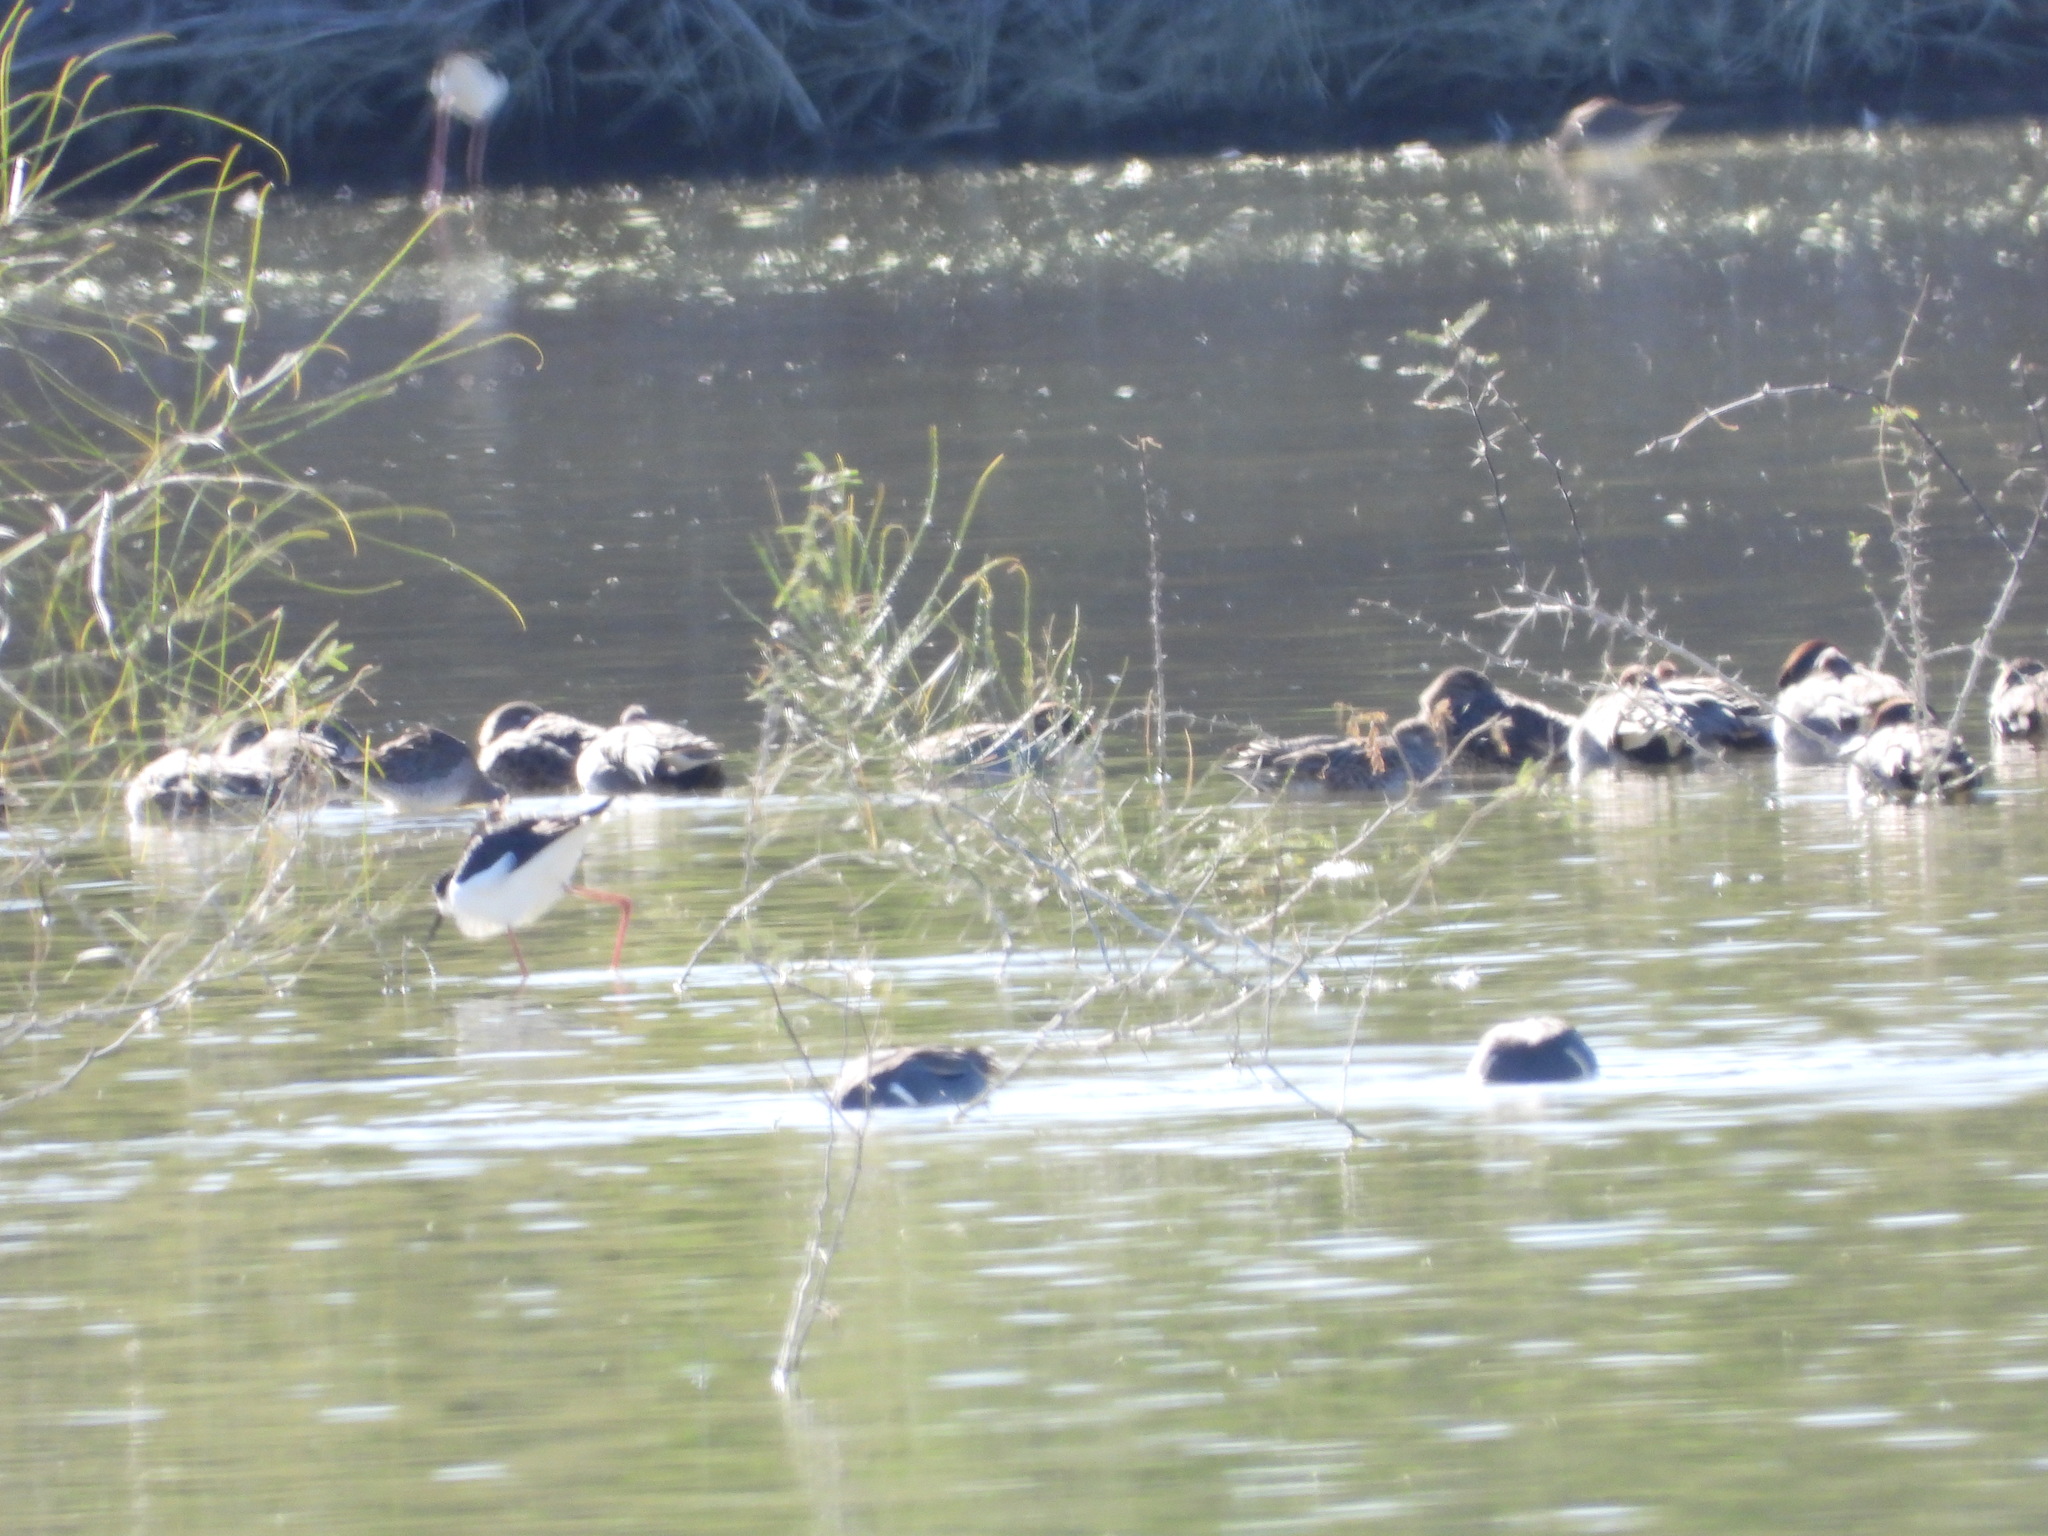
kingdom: Animalia
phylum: Chordata
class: Aves
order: Charadriiformes
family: Recurvirostridae
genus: Himantopus
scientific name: Himantopus mexicanus
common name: Black-necked stilt
